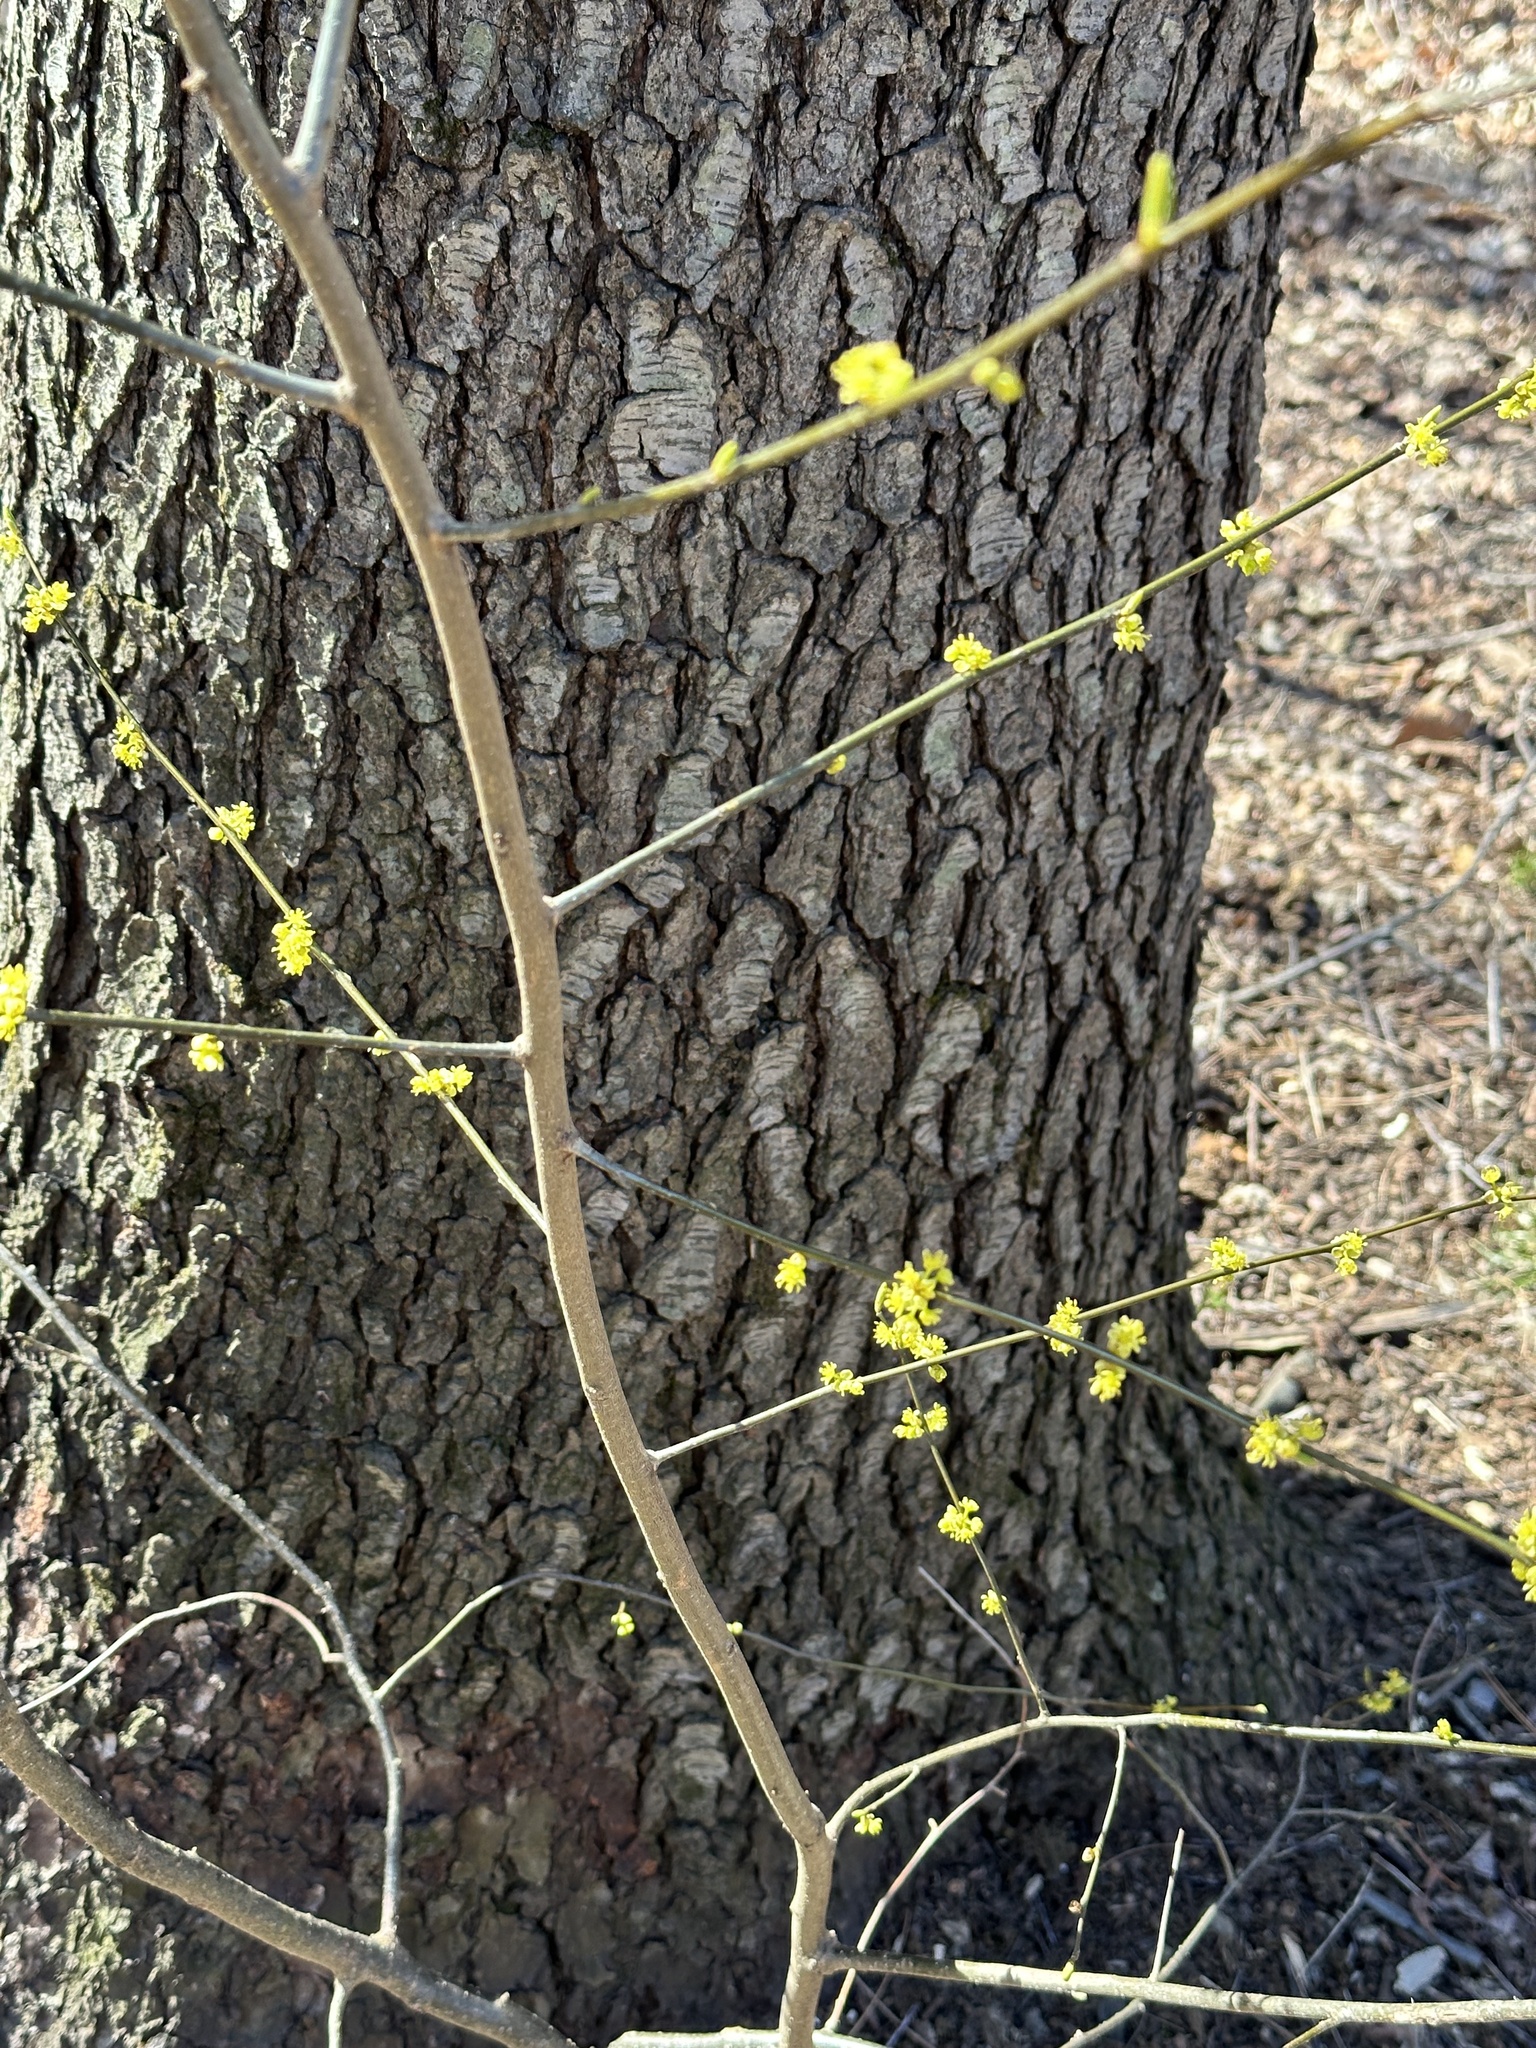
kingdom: Plantae
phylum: Tracheophyta
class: Magnoliopsida
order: Laurales
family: Lauraceae
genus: Lindera
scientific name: Lindera benzoin
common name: Spicebush
